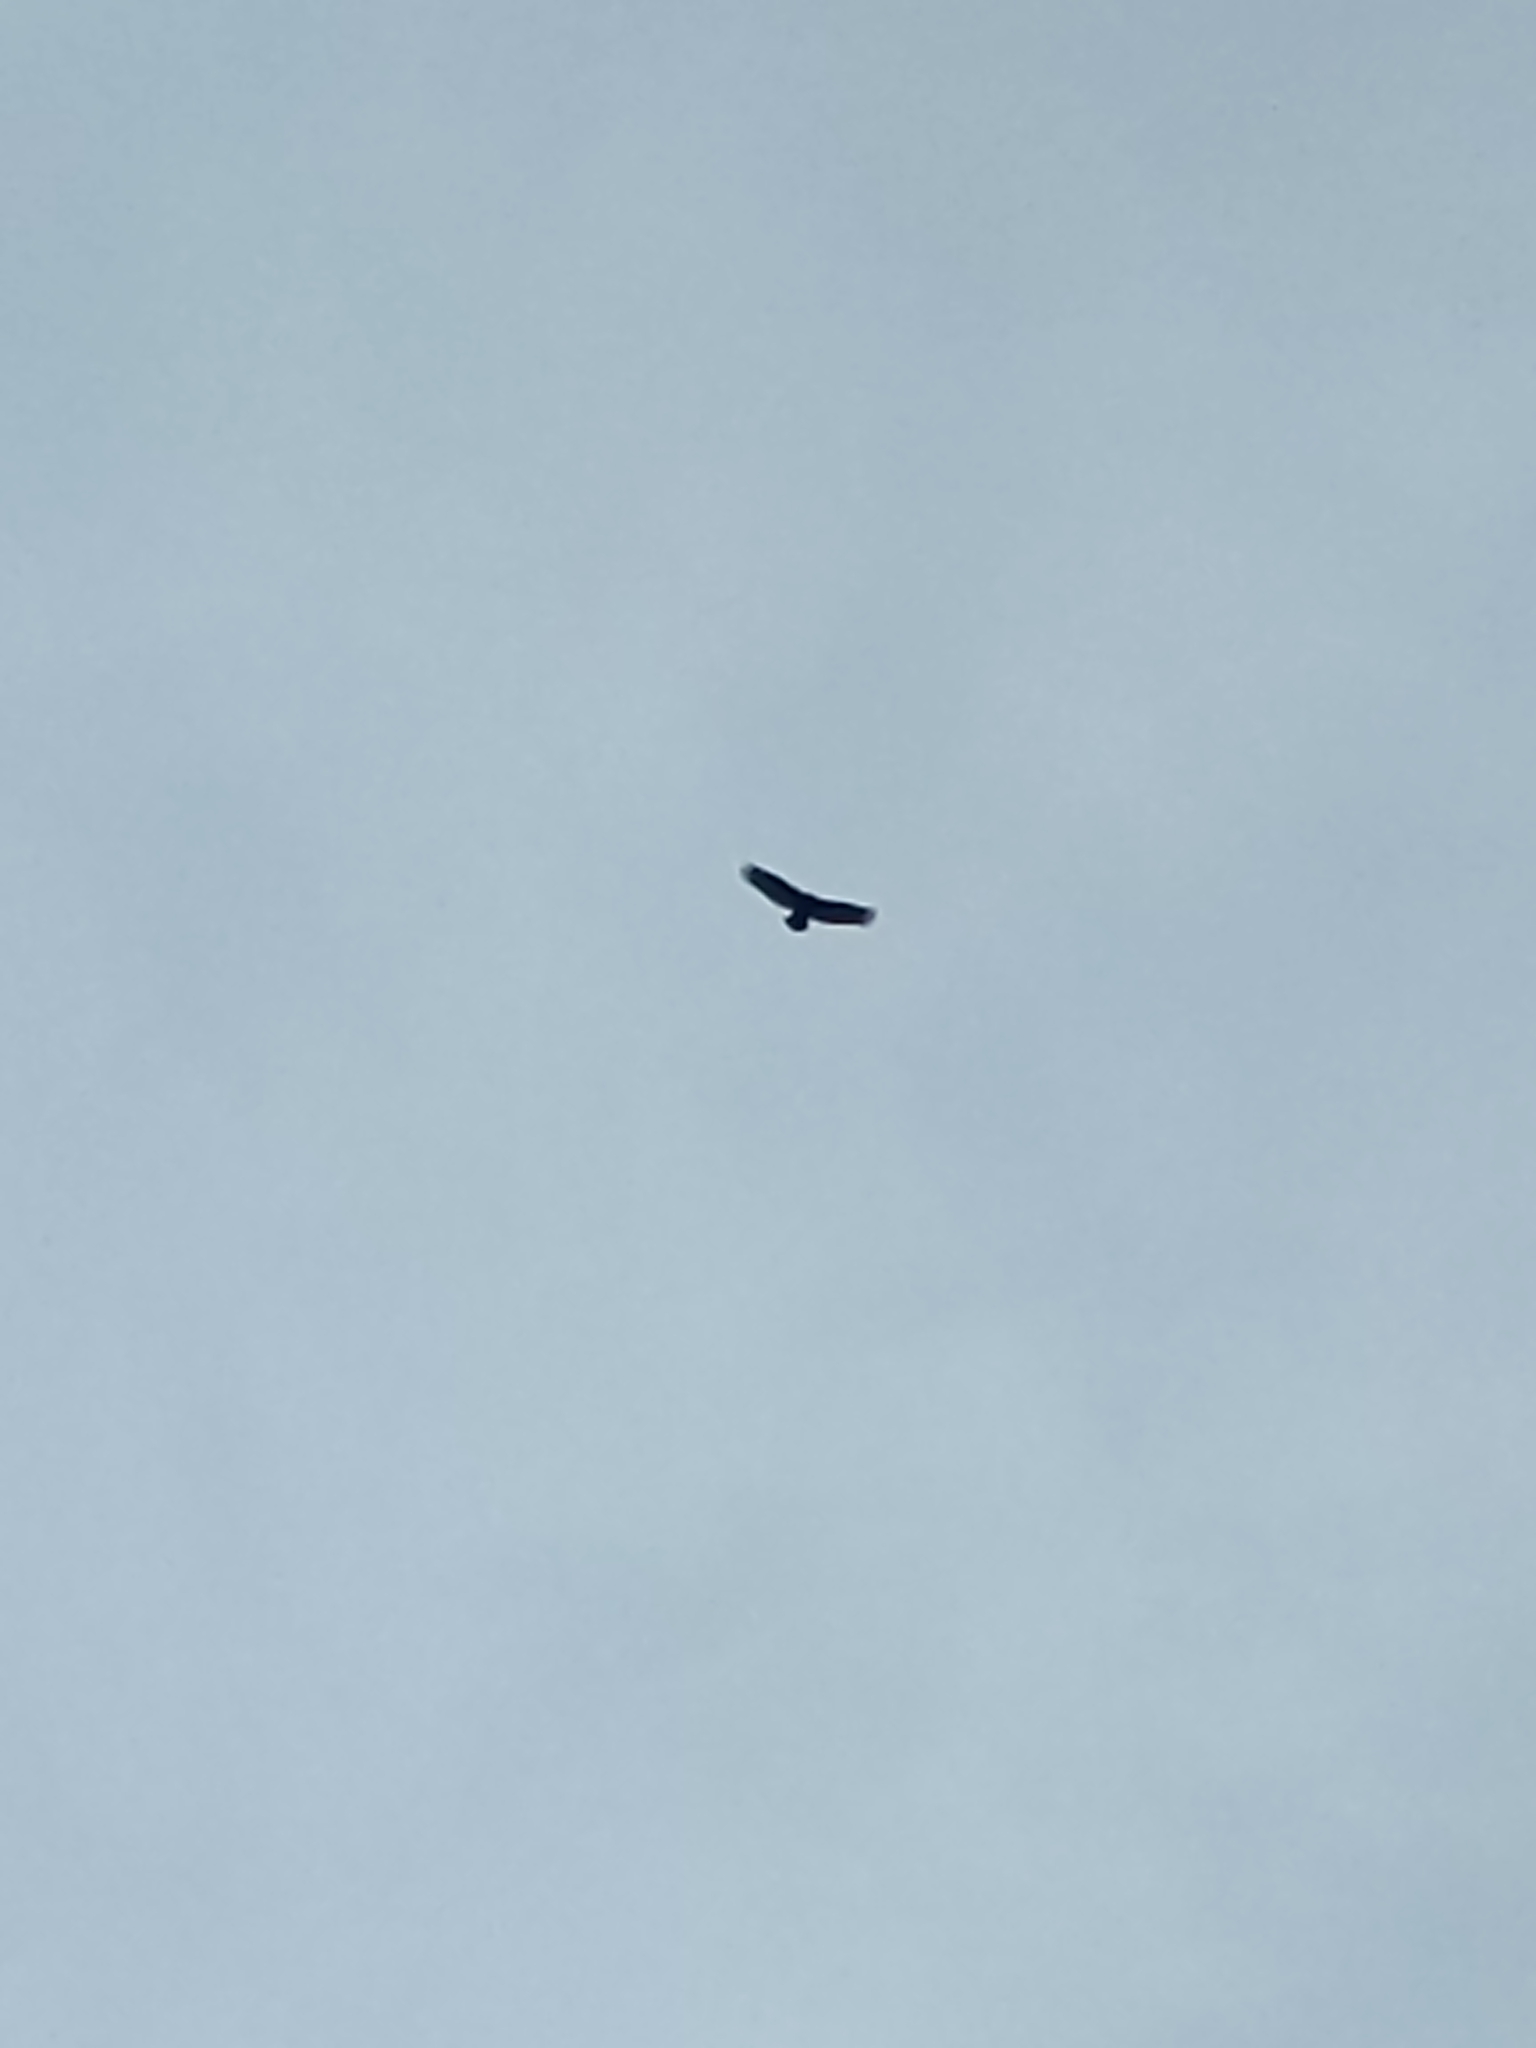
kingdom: Animalia
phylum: Chordata
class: Aves
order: Accipitriformes
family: Accipitridae
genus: Buteo
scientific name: Buteo jamaicensis
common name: Red-tailed hawk
